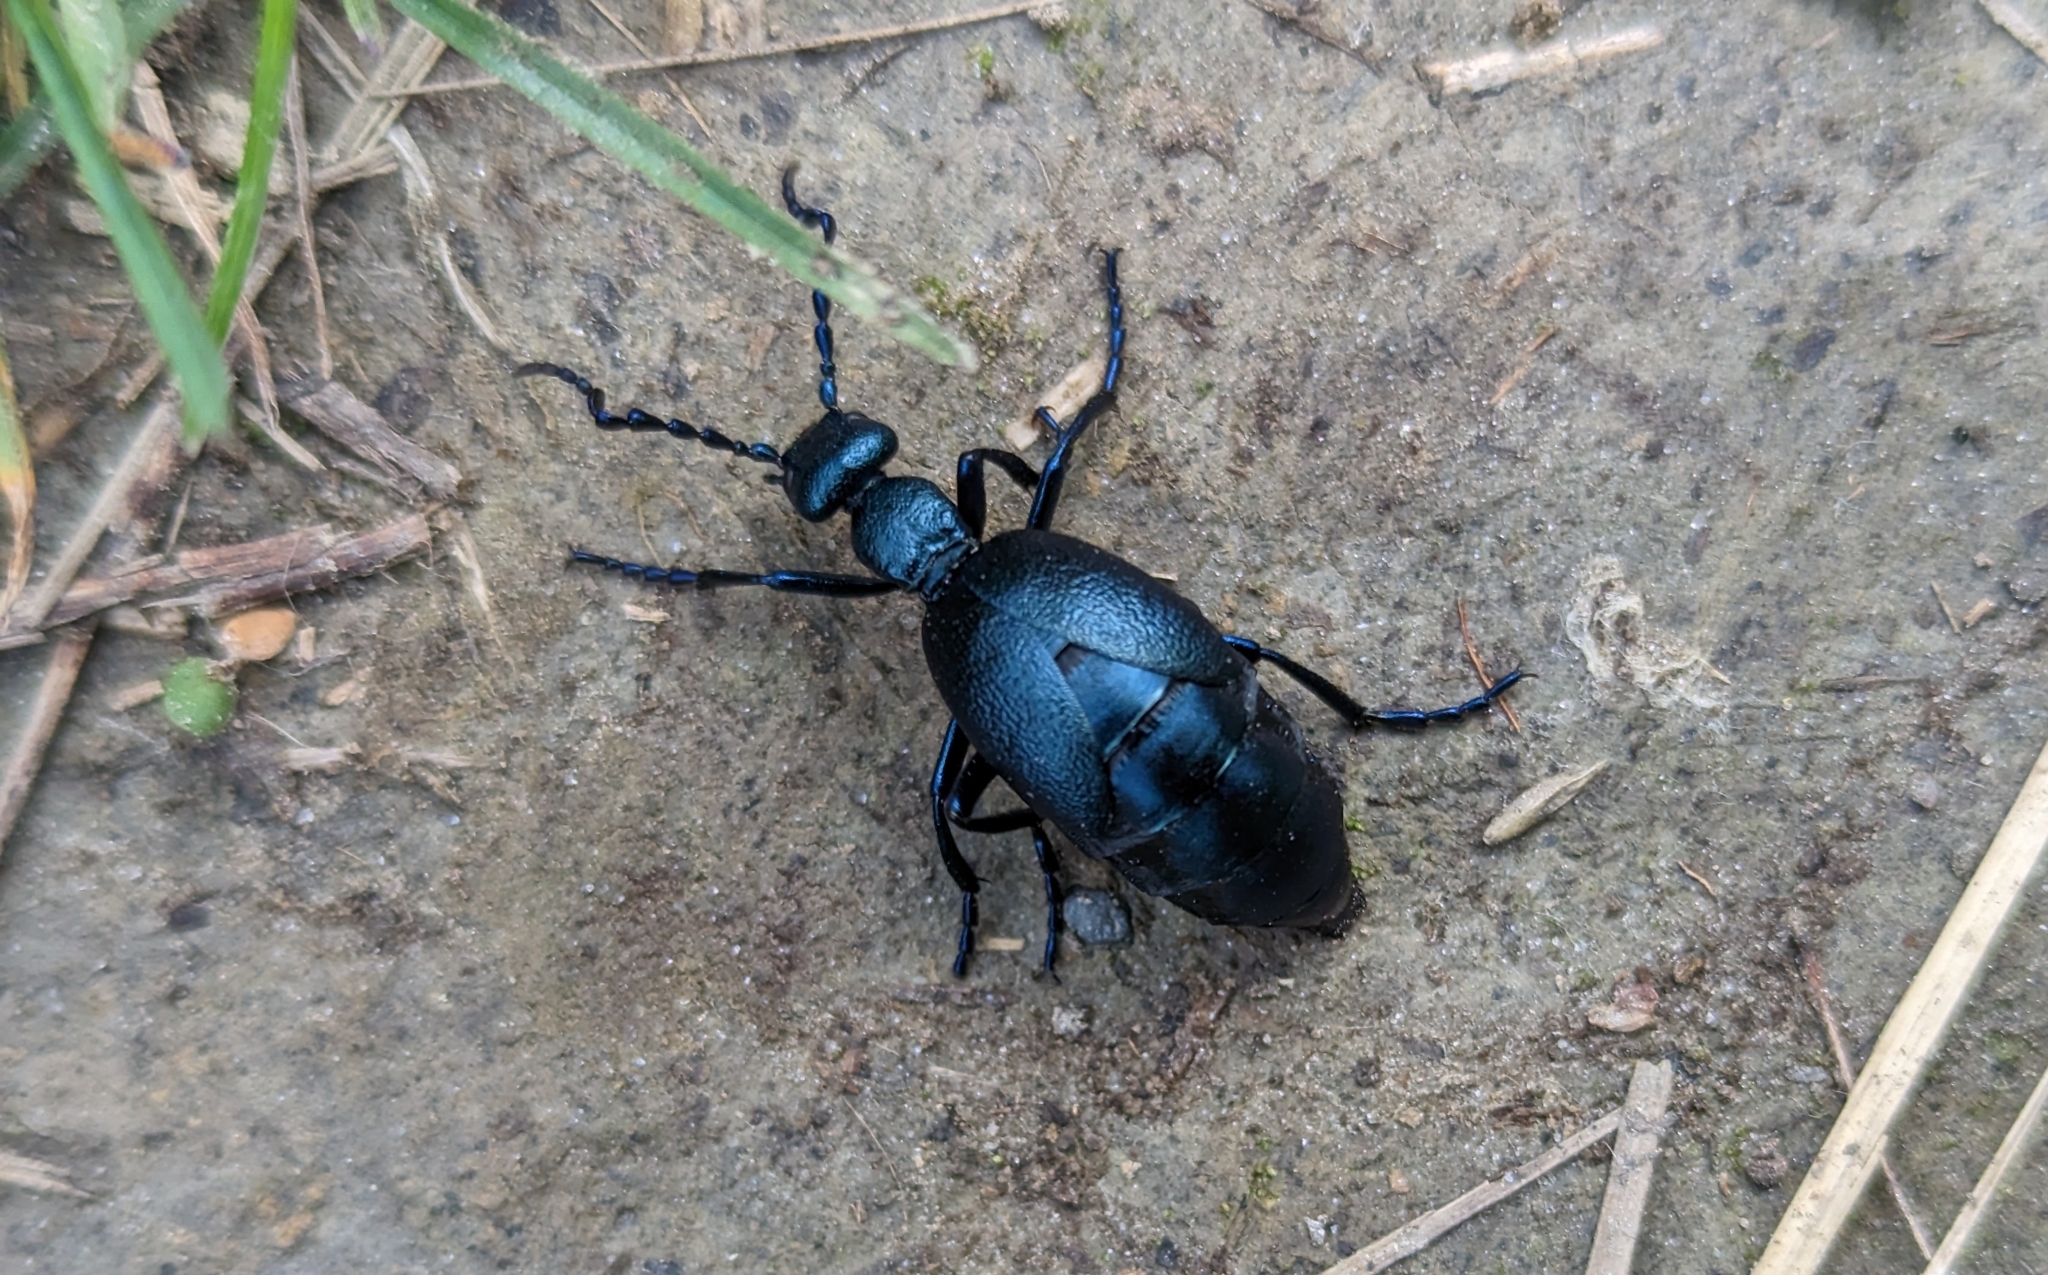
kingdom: Animalia
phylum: Arthropoda
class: Insecta
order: Coleoptera
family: Meloidae
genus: Meloe
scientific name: Meloe violaceus
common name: Violet oil-beetle
